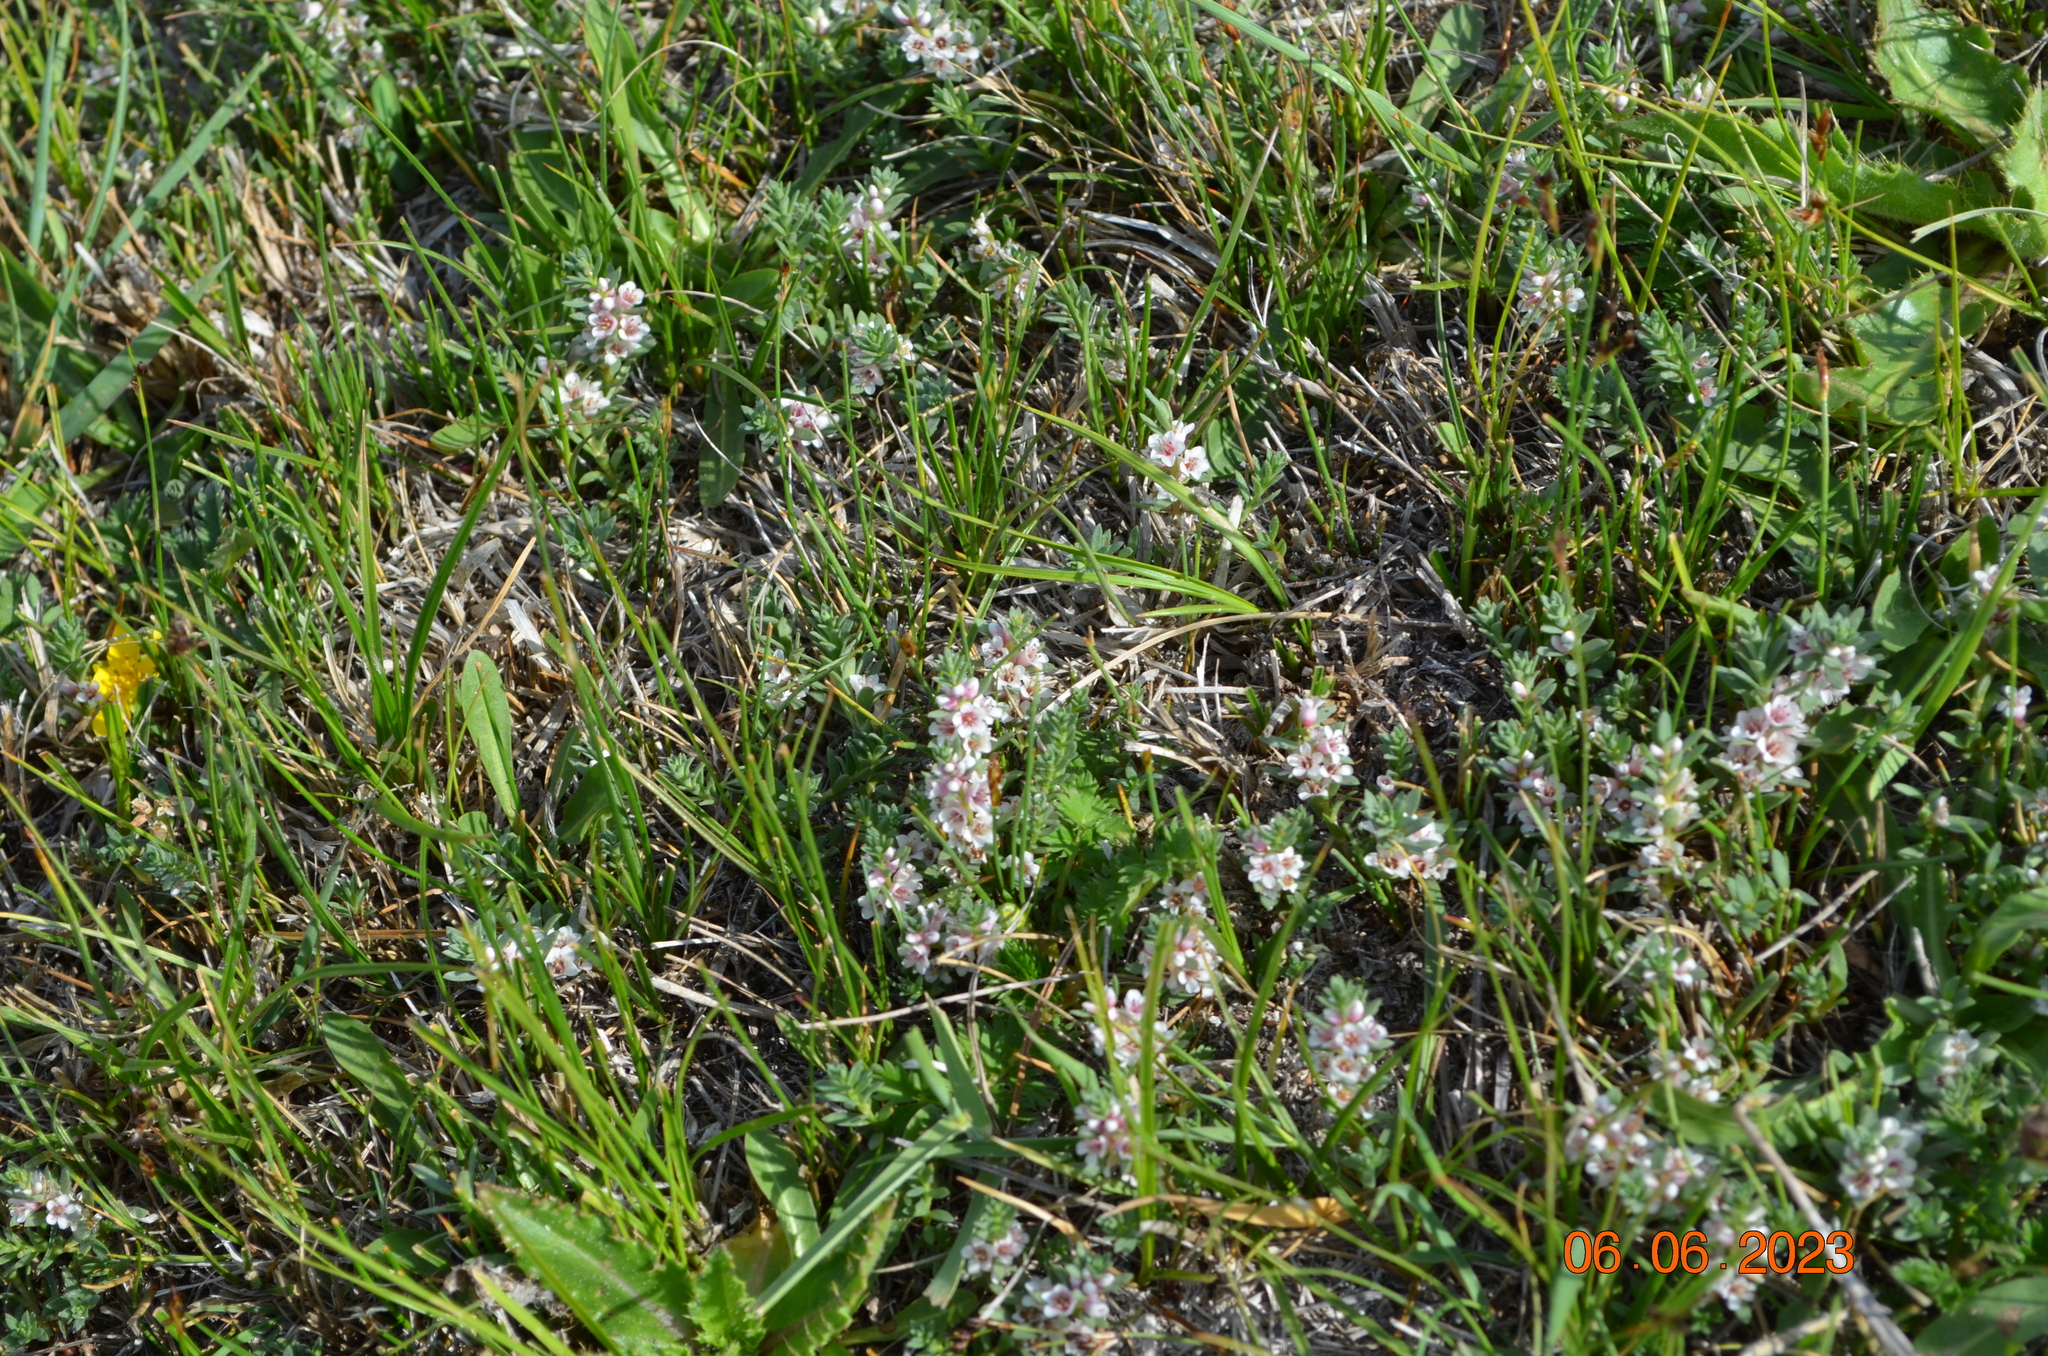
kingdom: Plantae
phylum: Tracheophyta
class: Magnoliopsida
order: Ericales
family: Primulaceae
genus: Lysimachia
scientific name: Lysimachia maritima
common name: Sea milkwort
